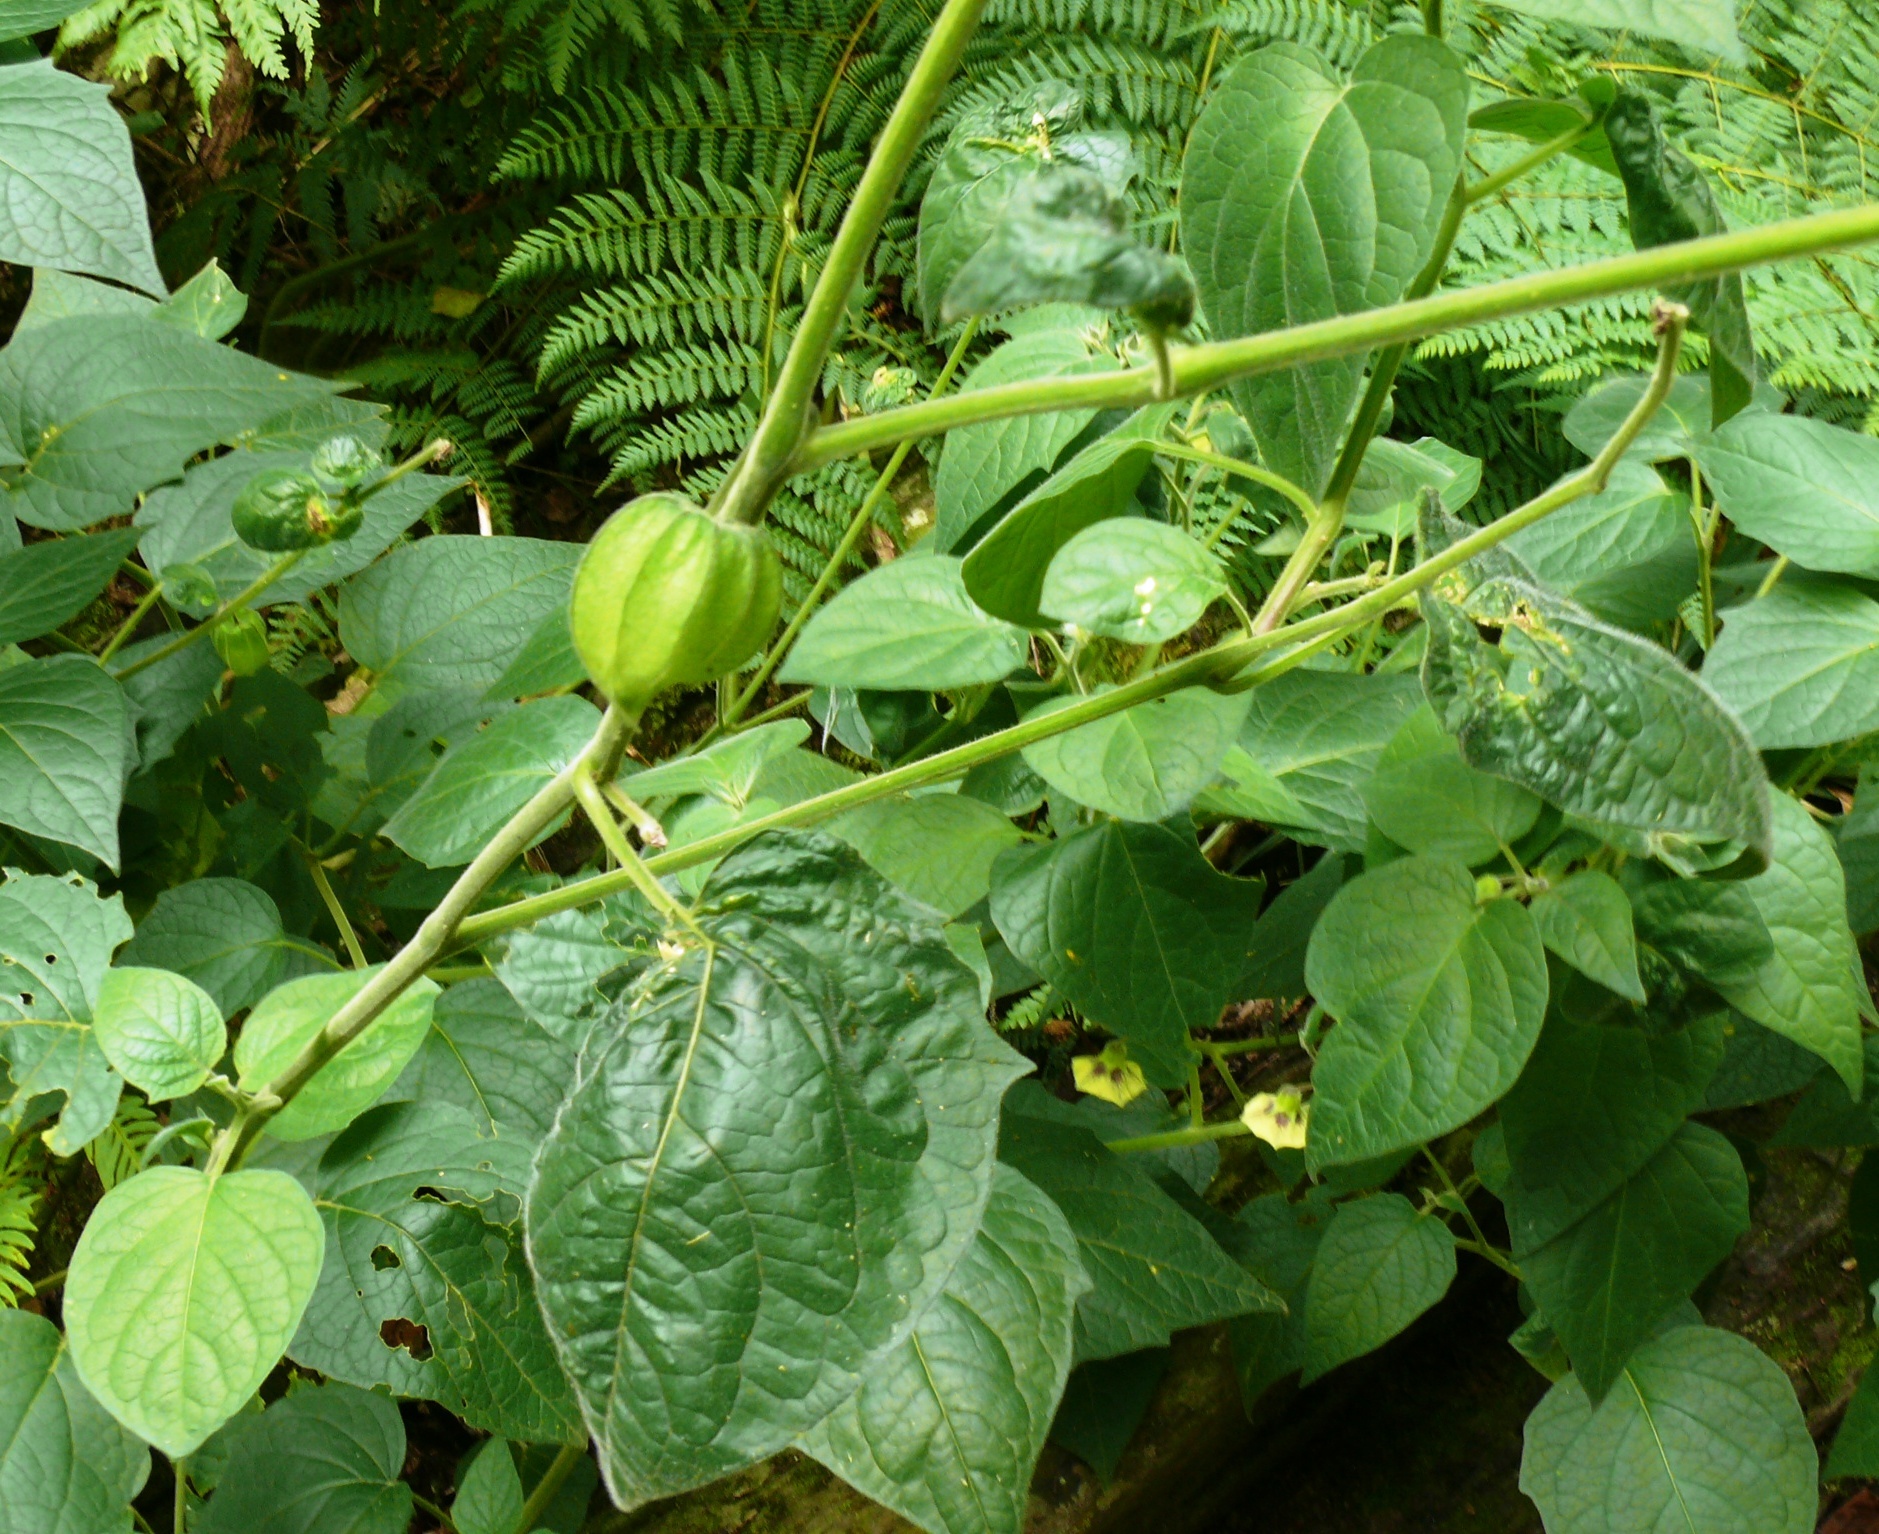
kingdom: Plantae
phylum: Tracheophyta
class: Magnoliopsida
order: Solanales
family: Solanaceae
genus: Physalis
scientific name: Physalis peruviana
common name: Cape-gooseberry
